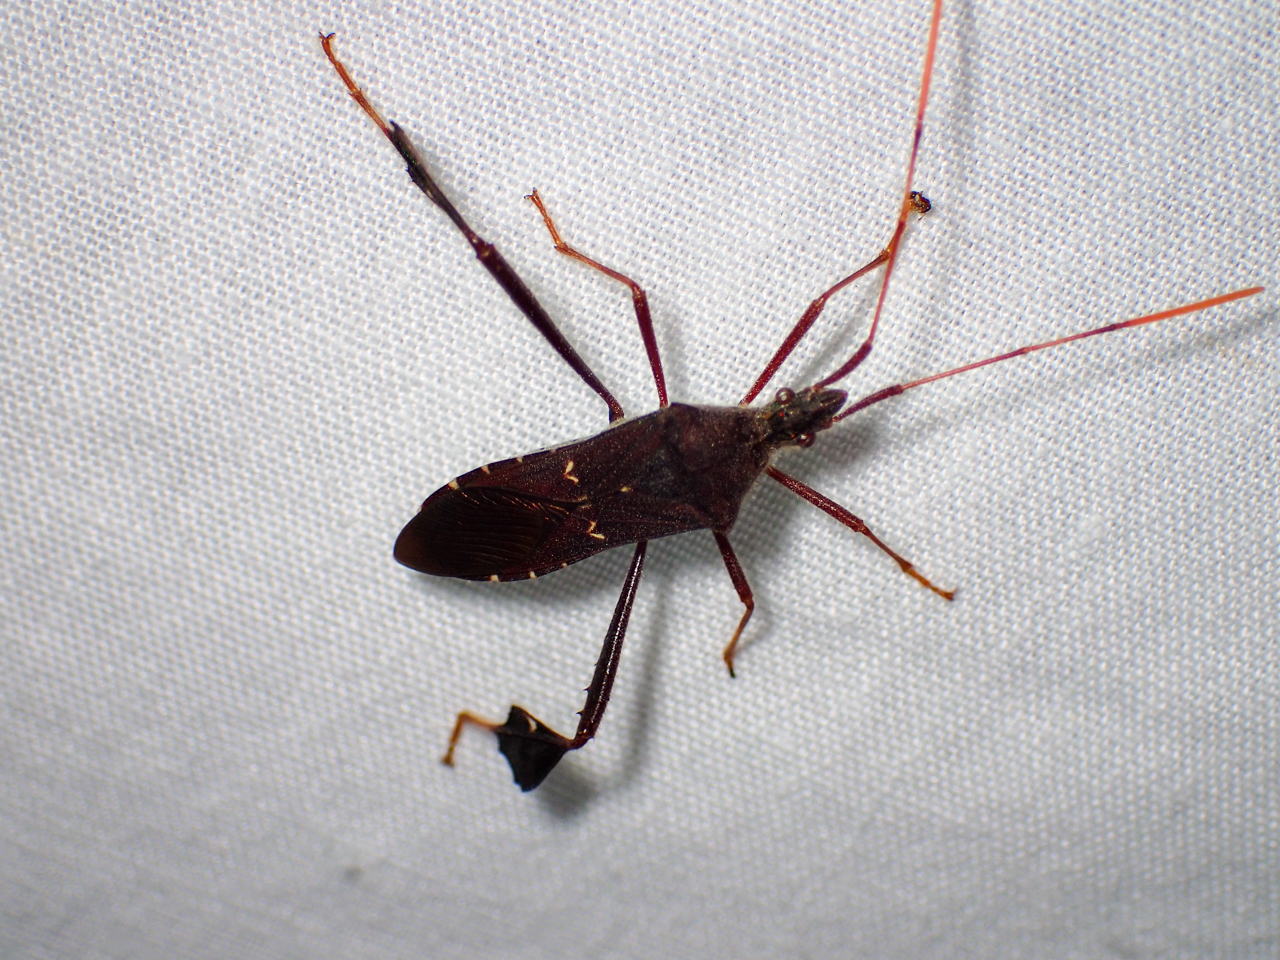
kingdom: Animalia
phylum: Arthropoda
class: Insecta
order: Hemiptera
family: Coreidae
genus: Leptoglossus
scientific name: Leptoglossus oppositus
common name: Northern leaf-footed bug
